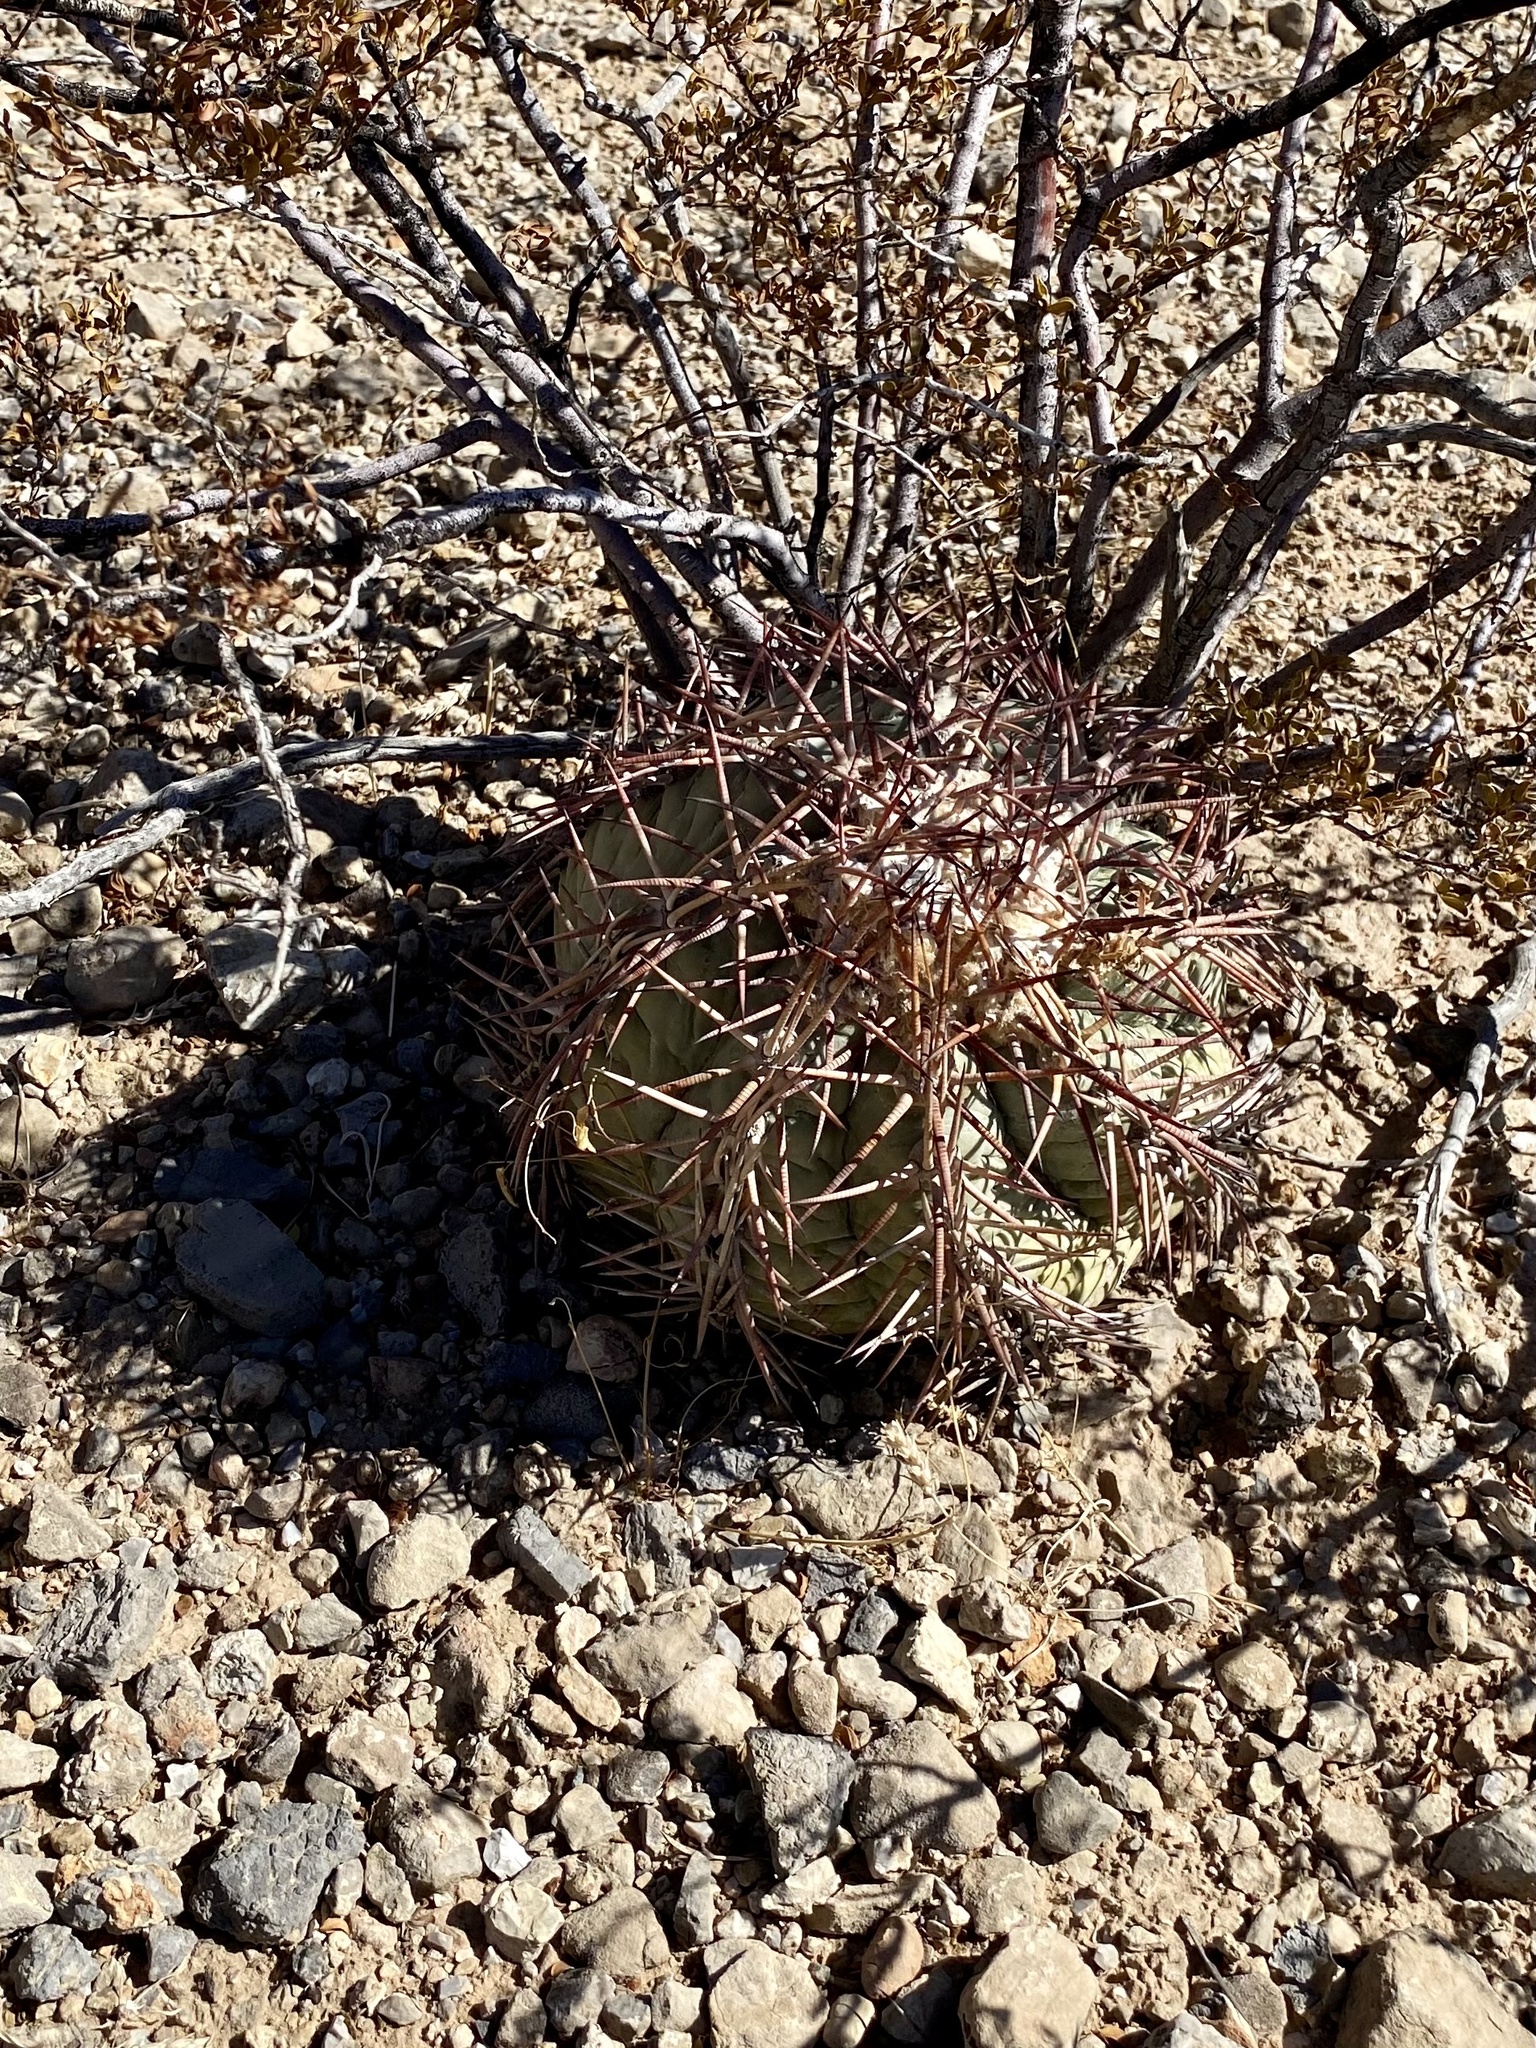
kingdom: Plantae
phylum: Tracheophyta
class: Magnoliopsida
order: Caryophyllales
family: Cactaceae
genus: Echinocactus
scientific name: Echinocactus horizonthalonius
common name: Devilshead
